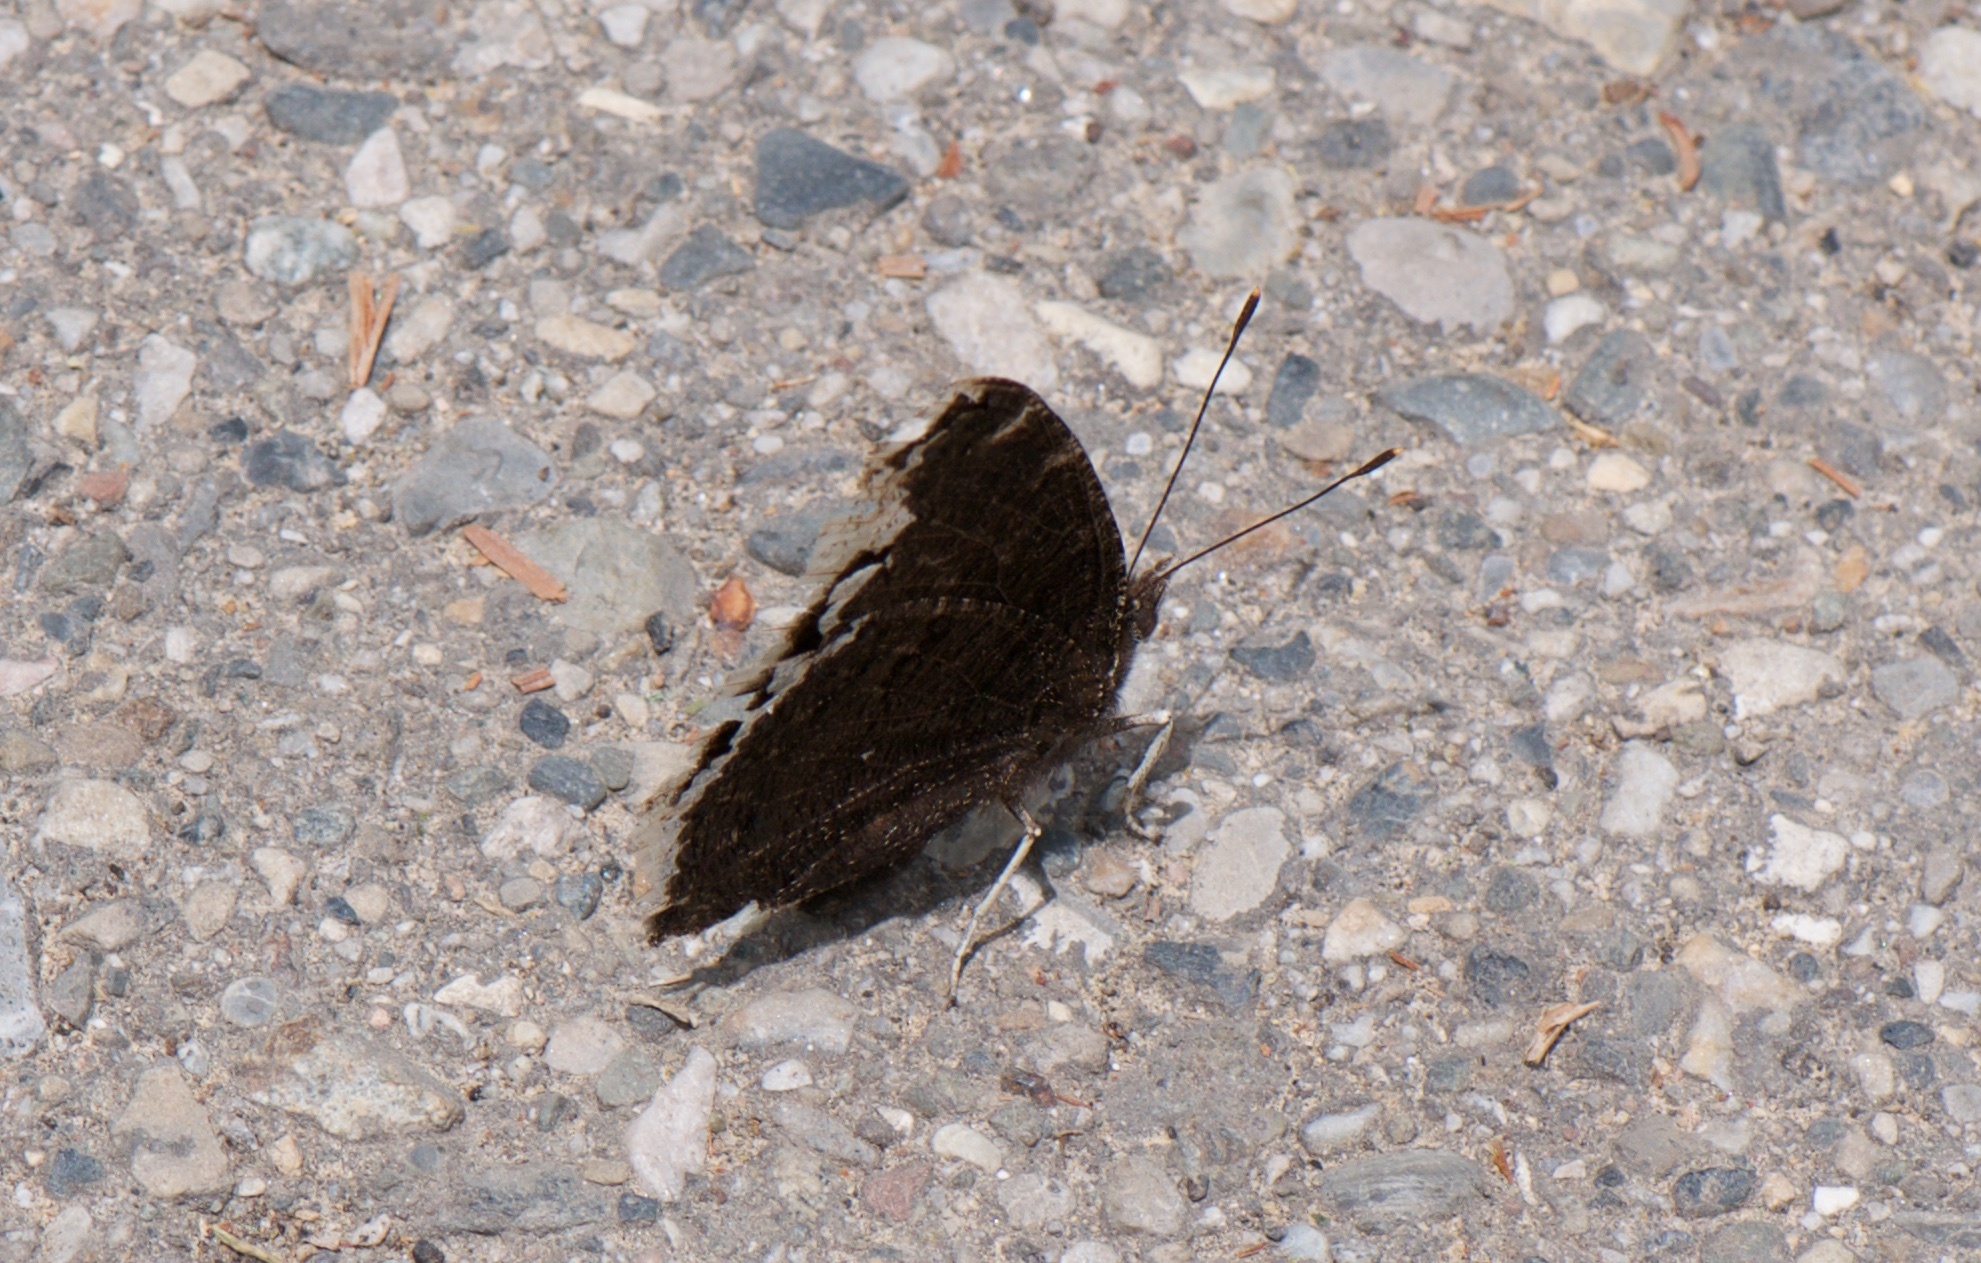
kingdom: Animalia
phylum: Arthropoda
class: Insecta
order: Lepidoptera
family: Nymphalidae
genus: Nymphalis
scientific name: Nymphalis antiopa
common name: Camberwell beauty
